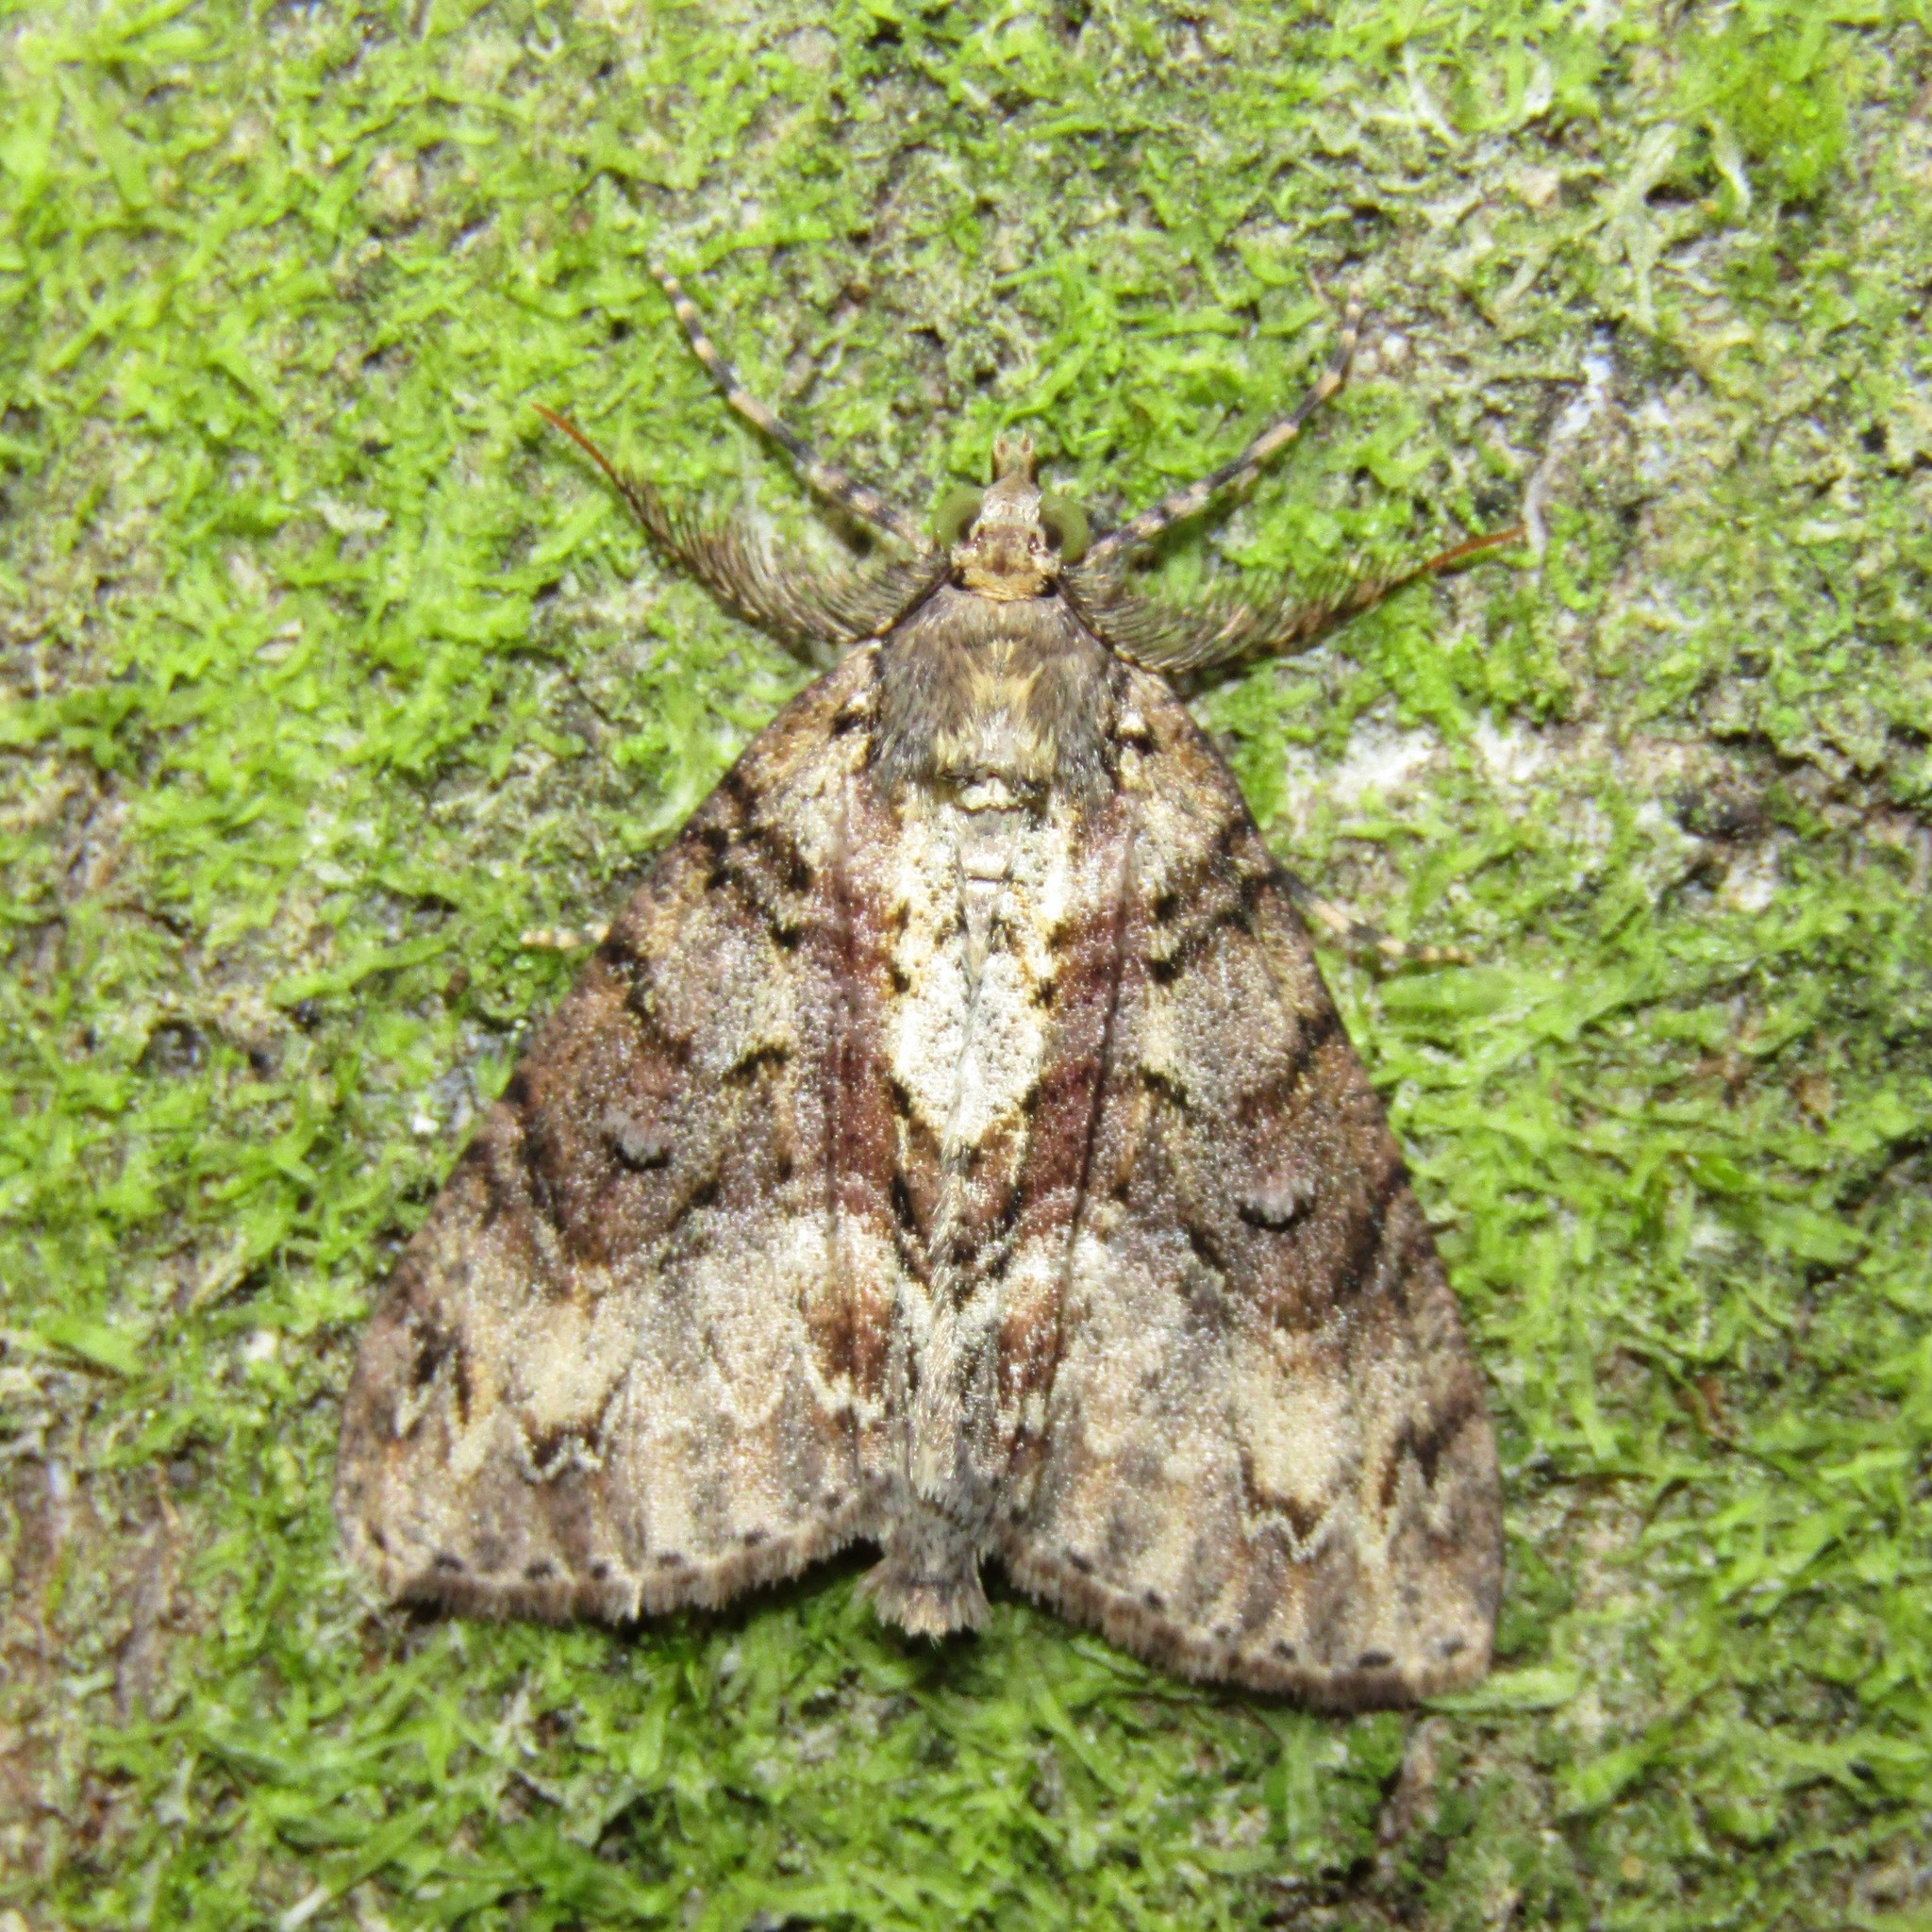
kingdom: Animalia
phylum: Arthropoda
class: Insecta
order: Lepidoptera
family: Geometridae
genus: Pseudocoremia
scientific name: Pseudocoremia suavis
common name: Common forest looper
